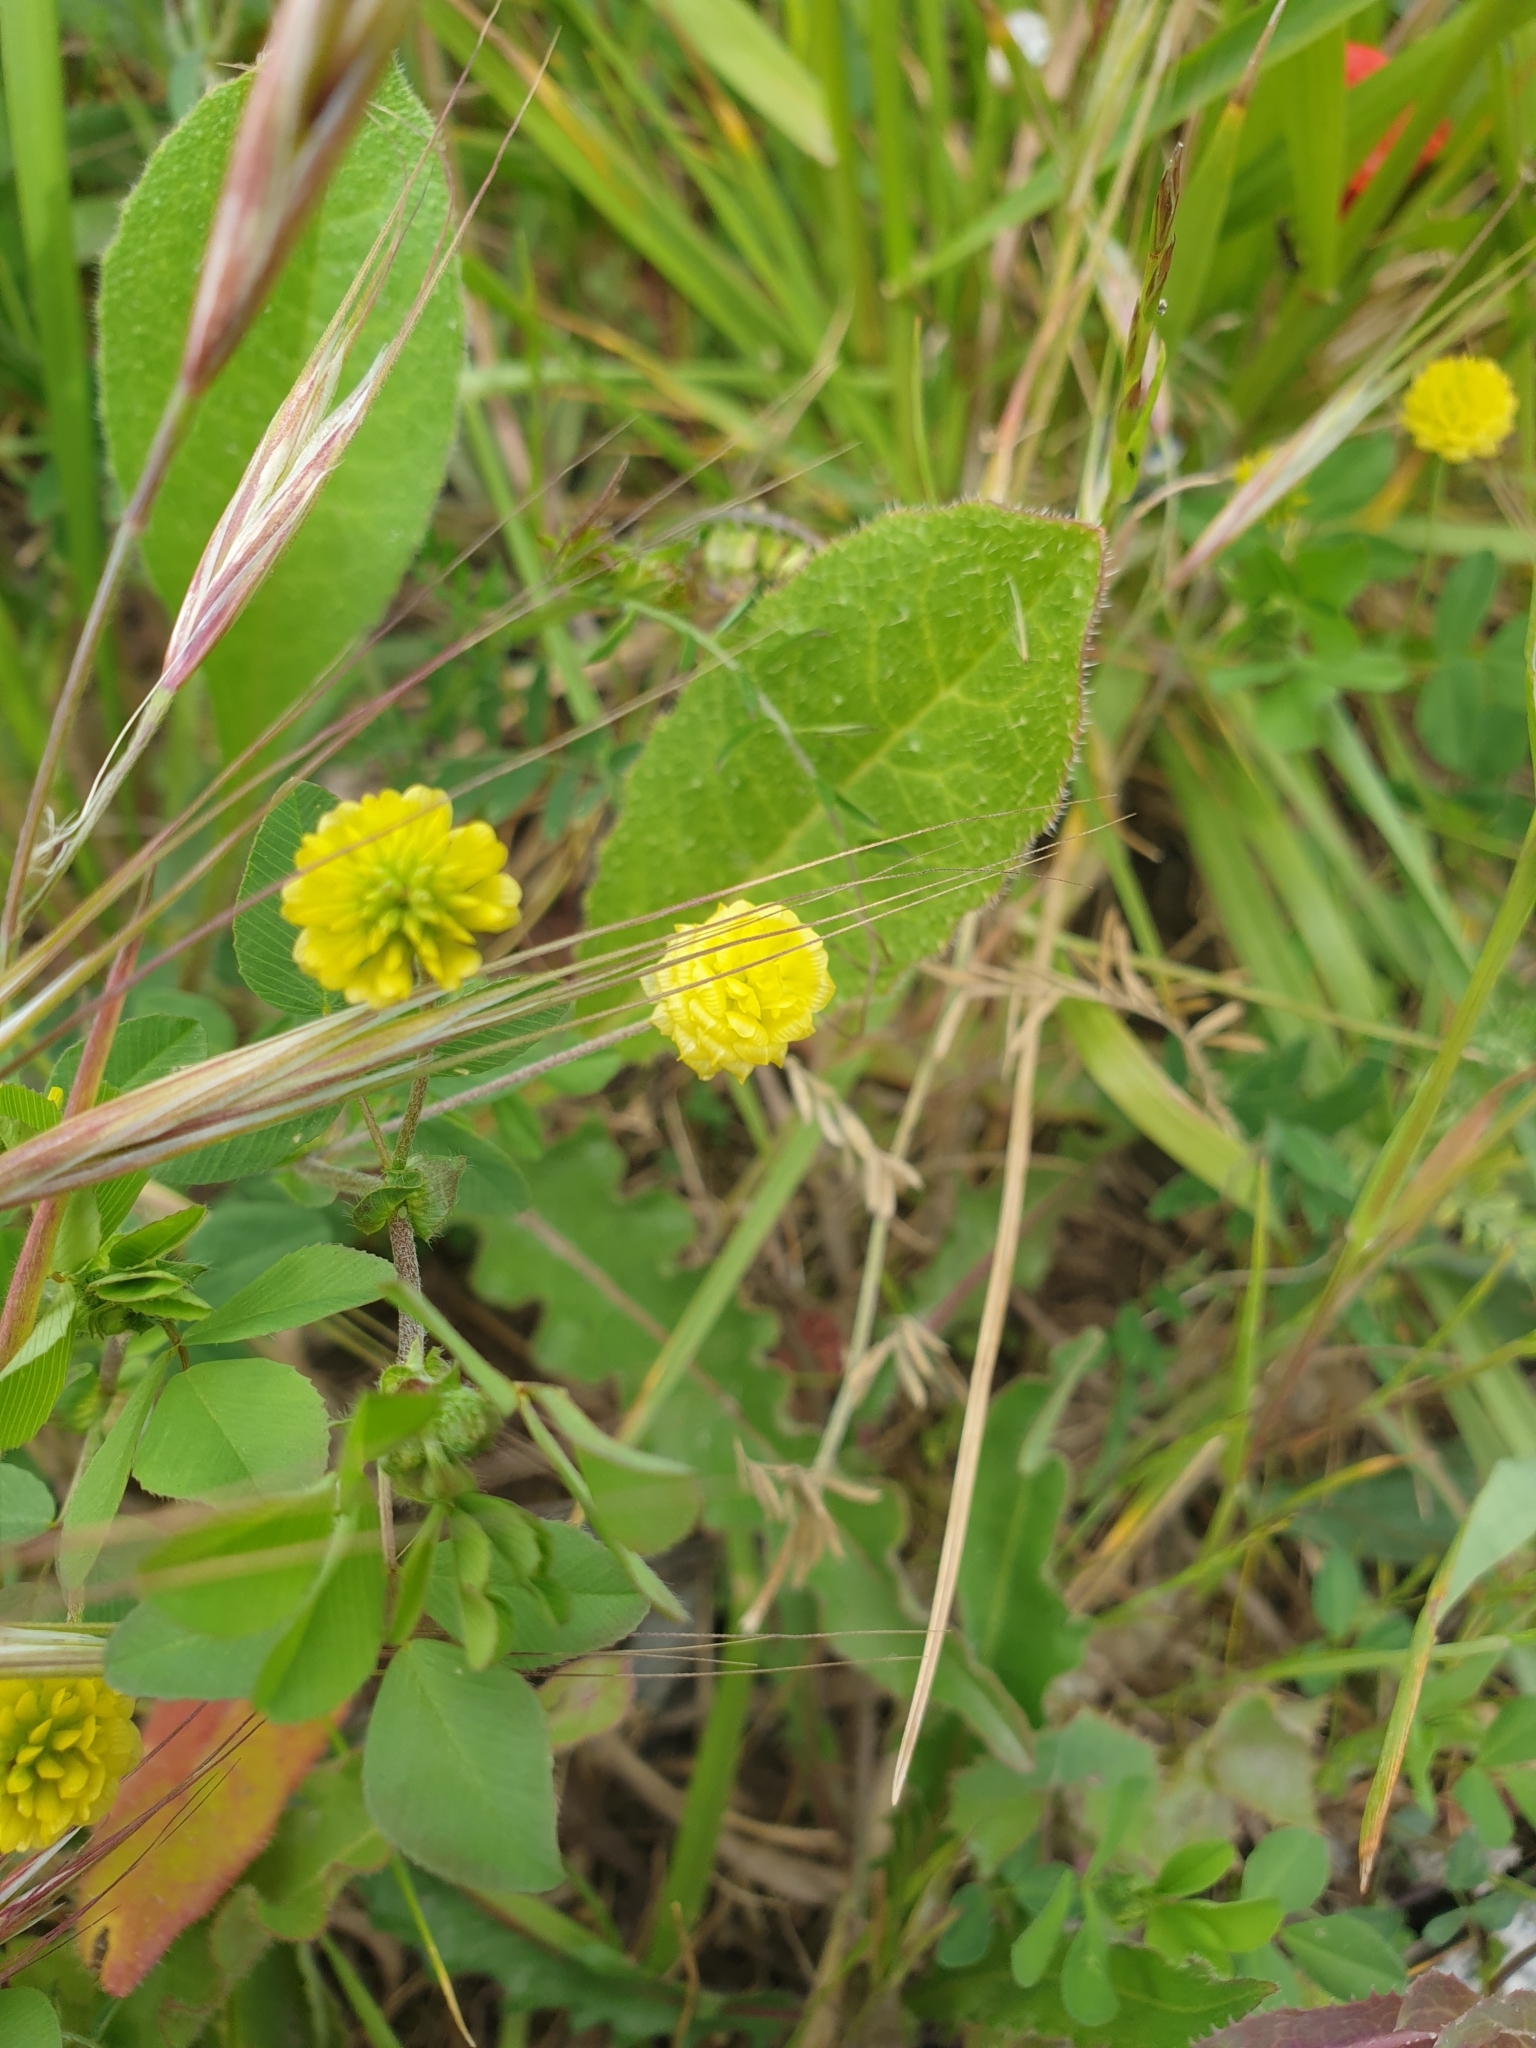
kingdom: Plantae
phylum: Tracheophyta
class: Magnoliopsida
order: Fabales
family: Fabaceae
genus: Trifolium
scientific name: Trifolium campestre
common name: Field clover
